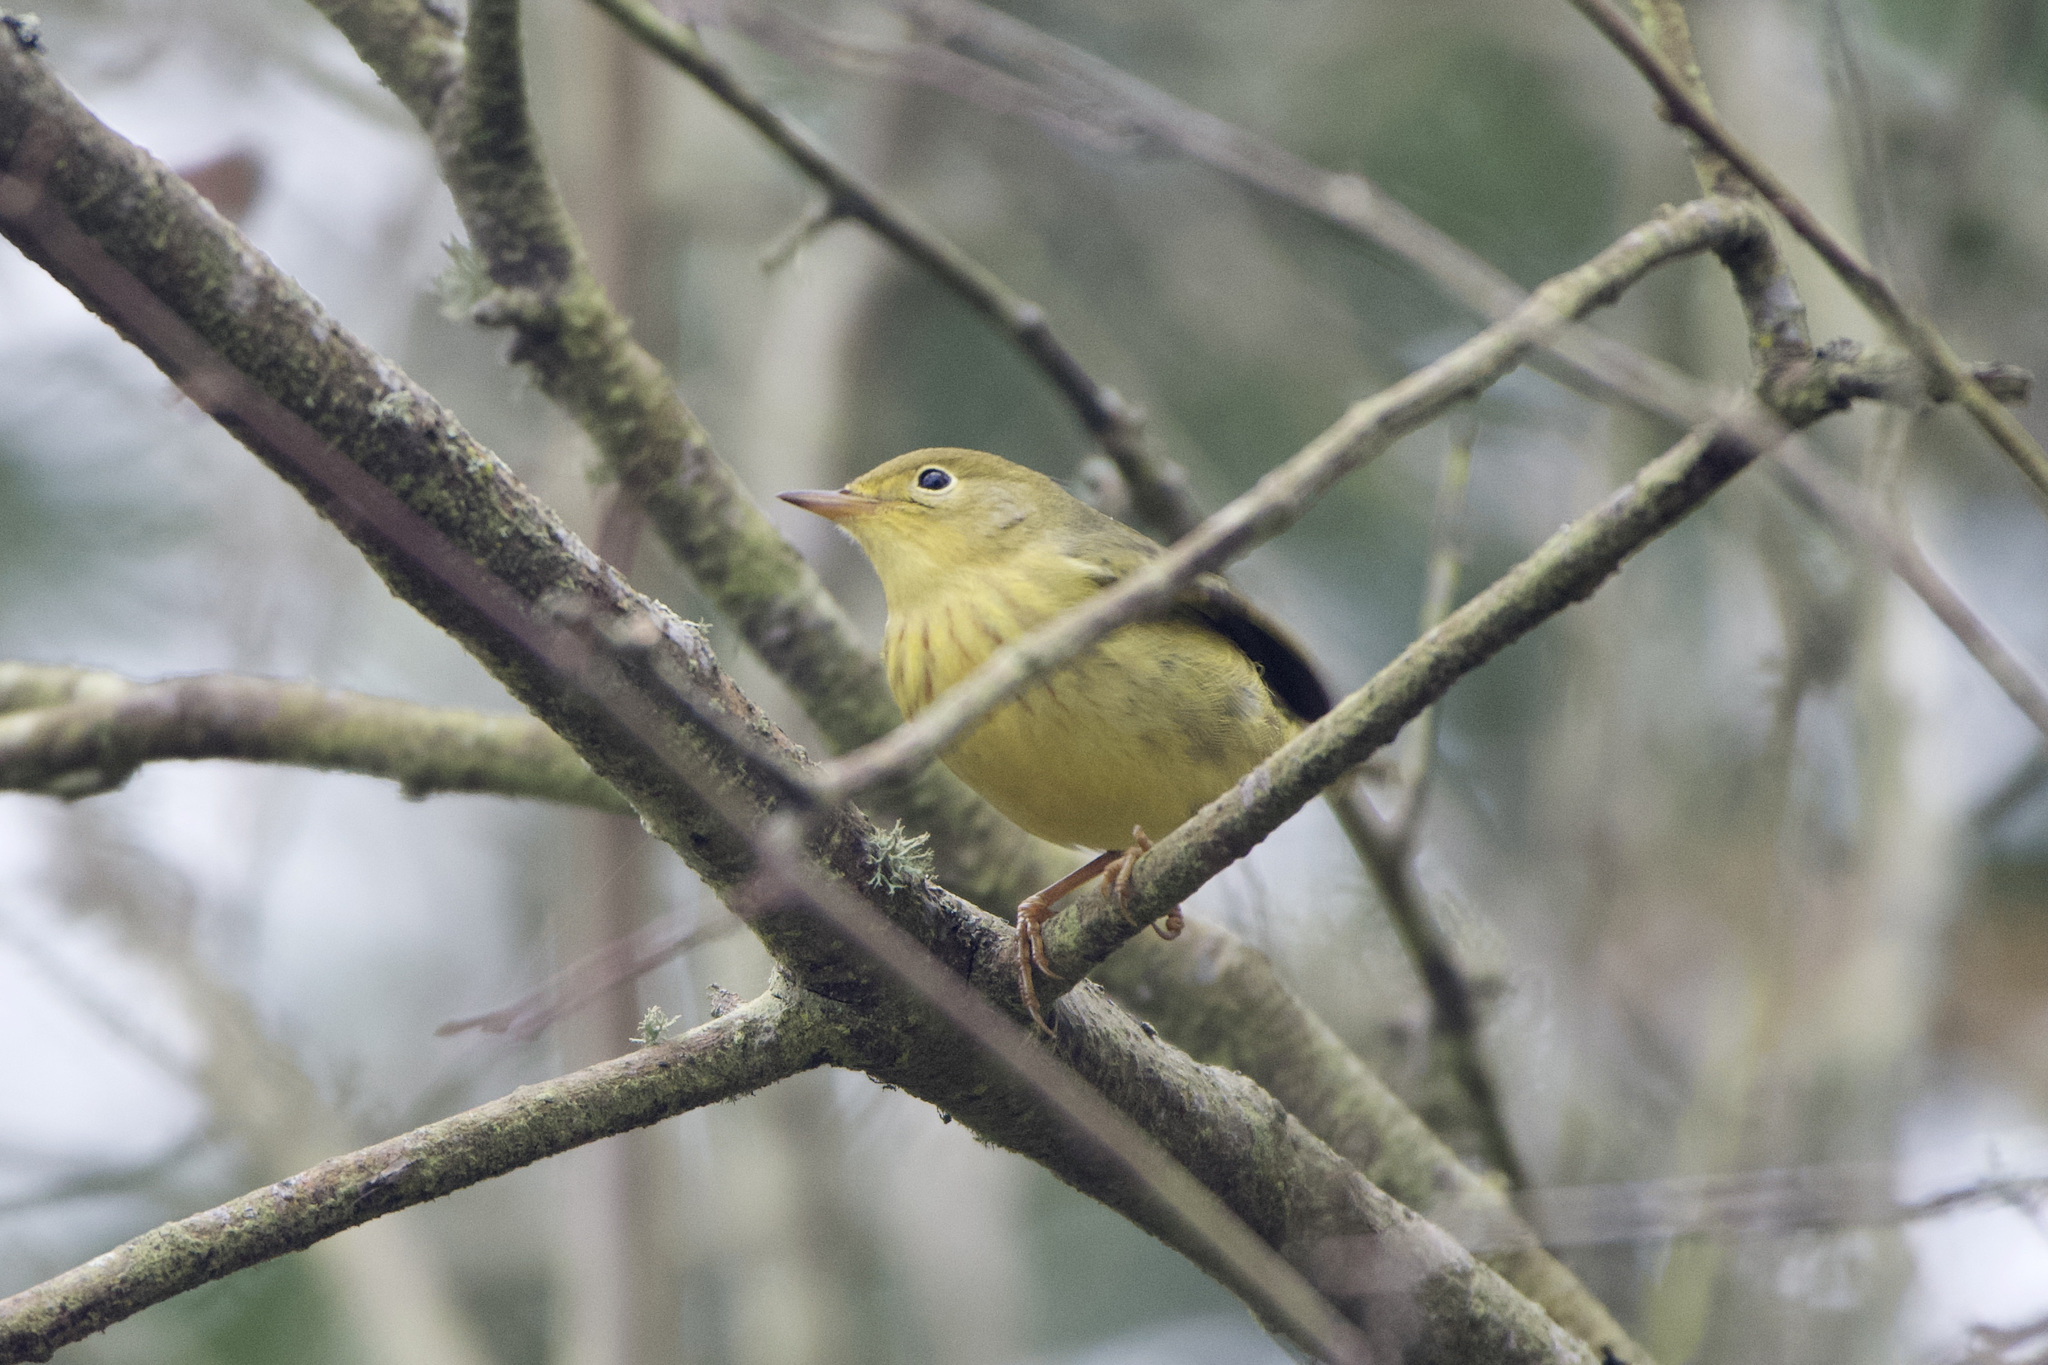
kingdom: Animalia
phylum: Chordata
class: Aves
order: Passeriformes
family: Parulidae
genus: Setophaga
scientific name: Setophaga petechia
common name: Yellow warbler
